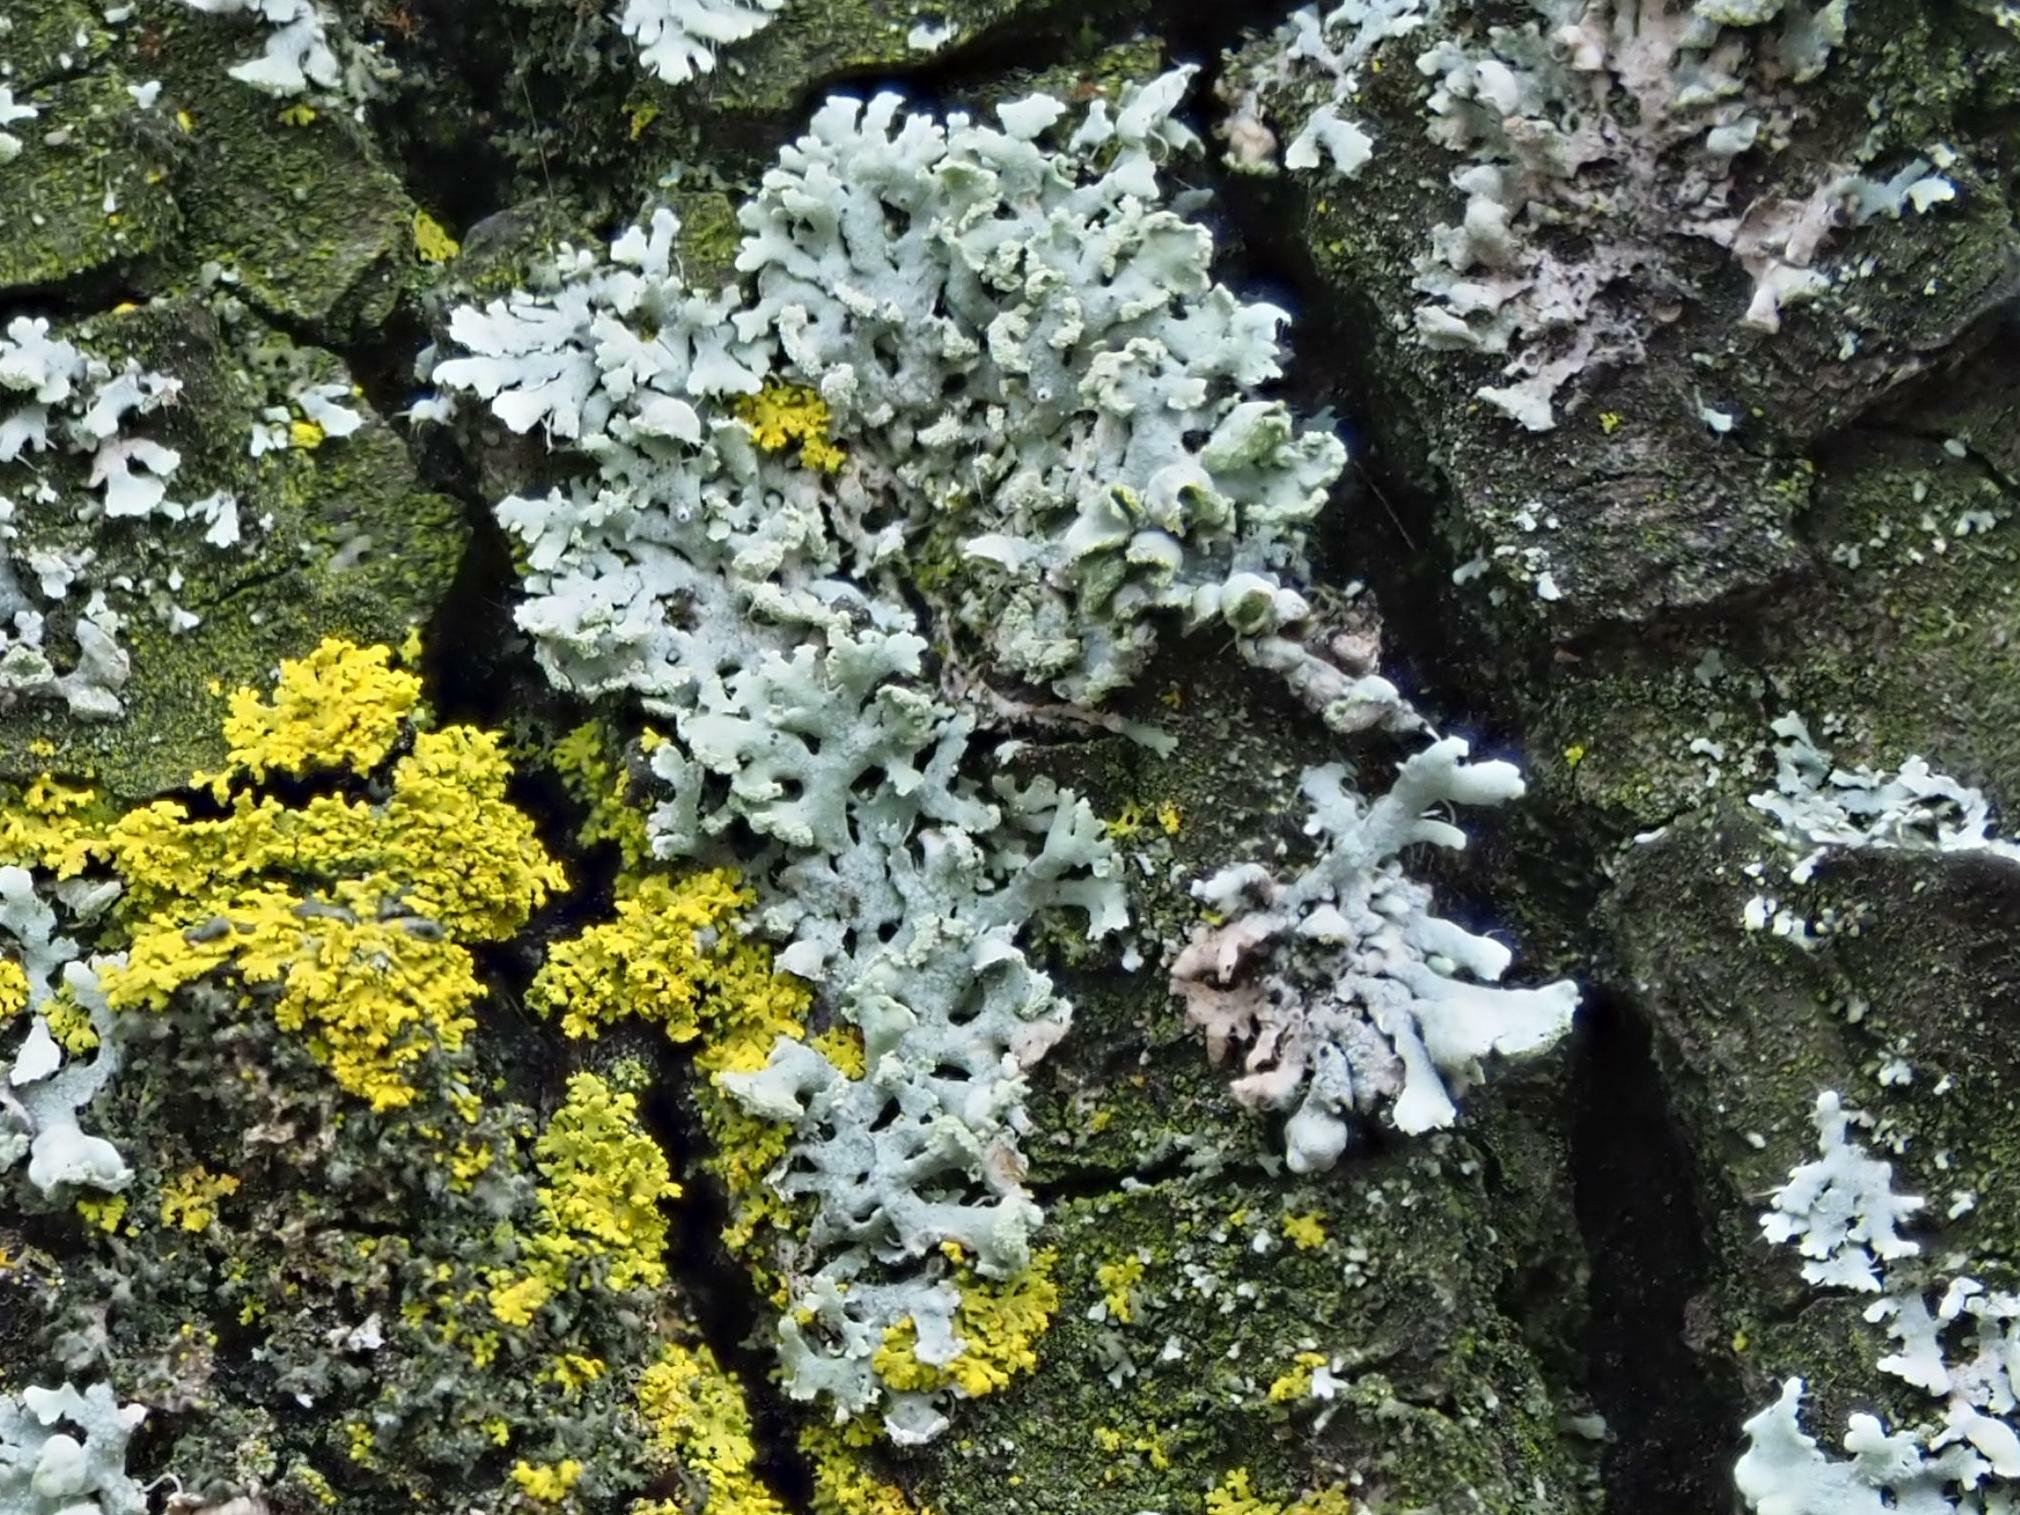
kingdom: Fungi
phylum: Ascomycota
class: Lecanoromycetes
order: Caliciales
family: Physciaceae
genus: Physcia
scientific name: Physcia tenella
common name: Fringed rosette lichen
